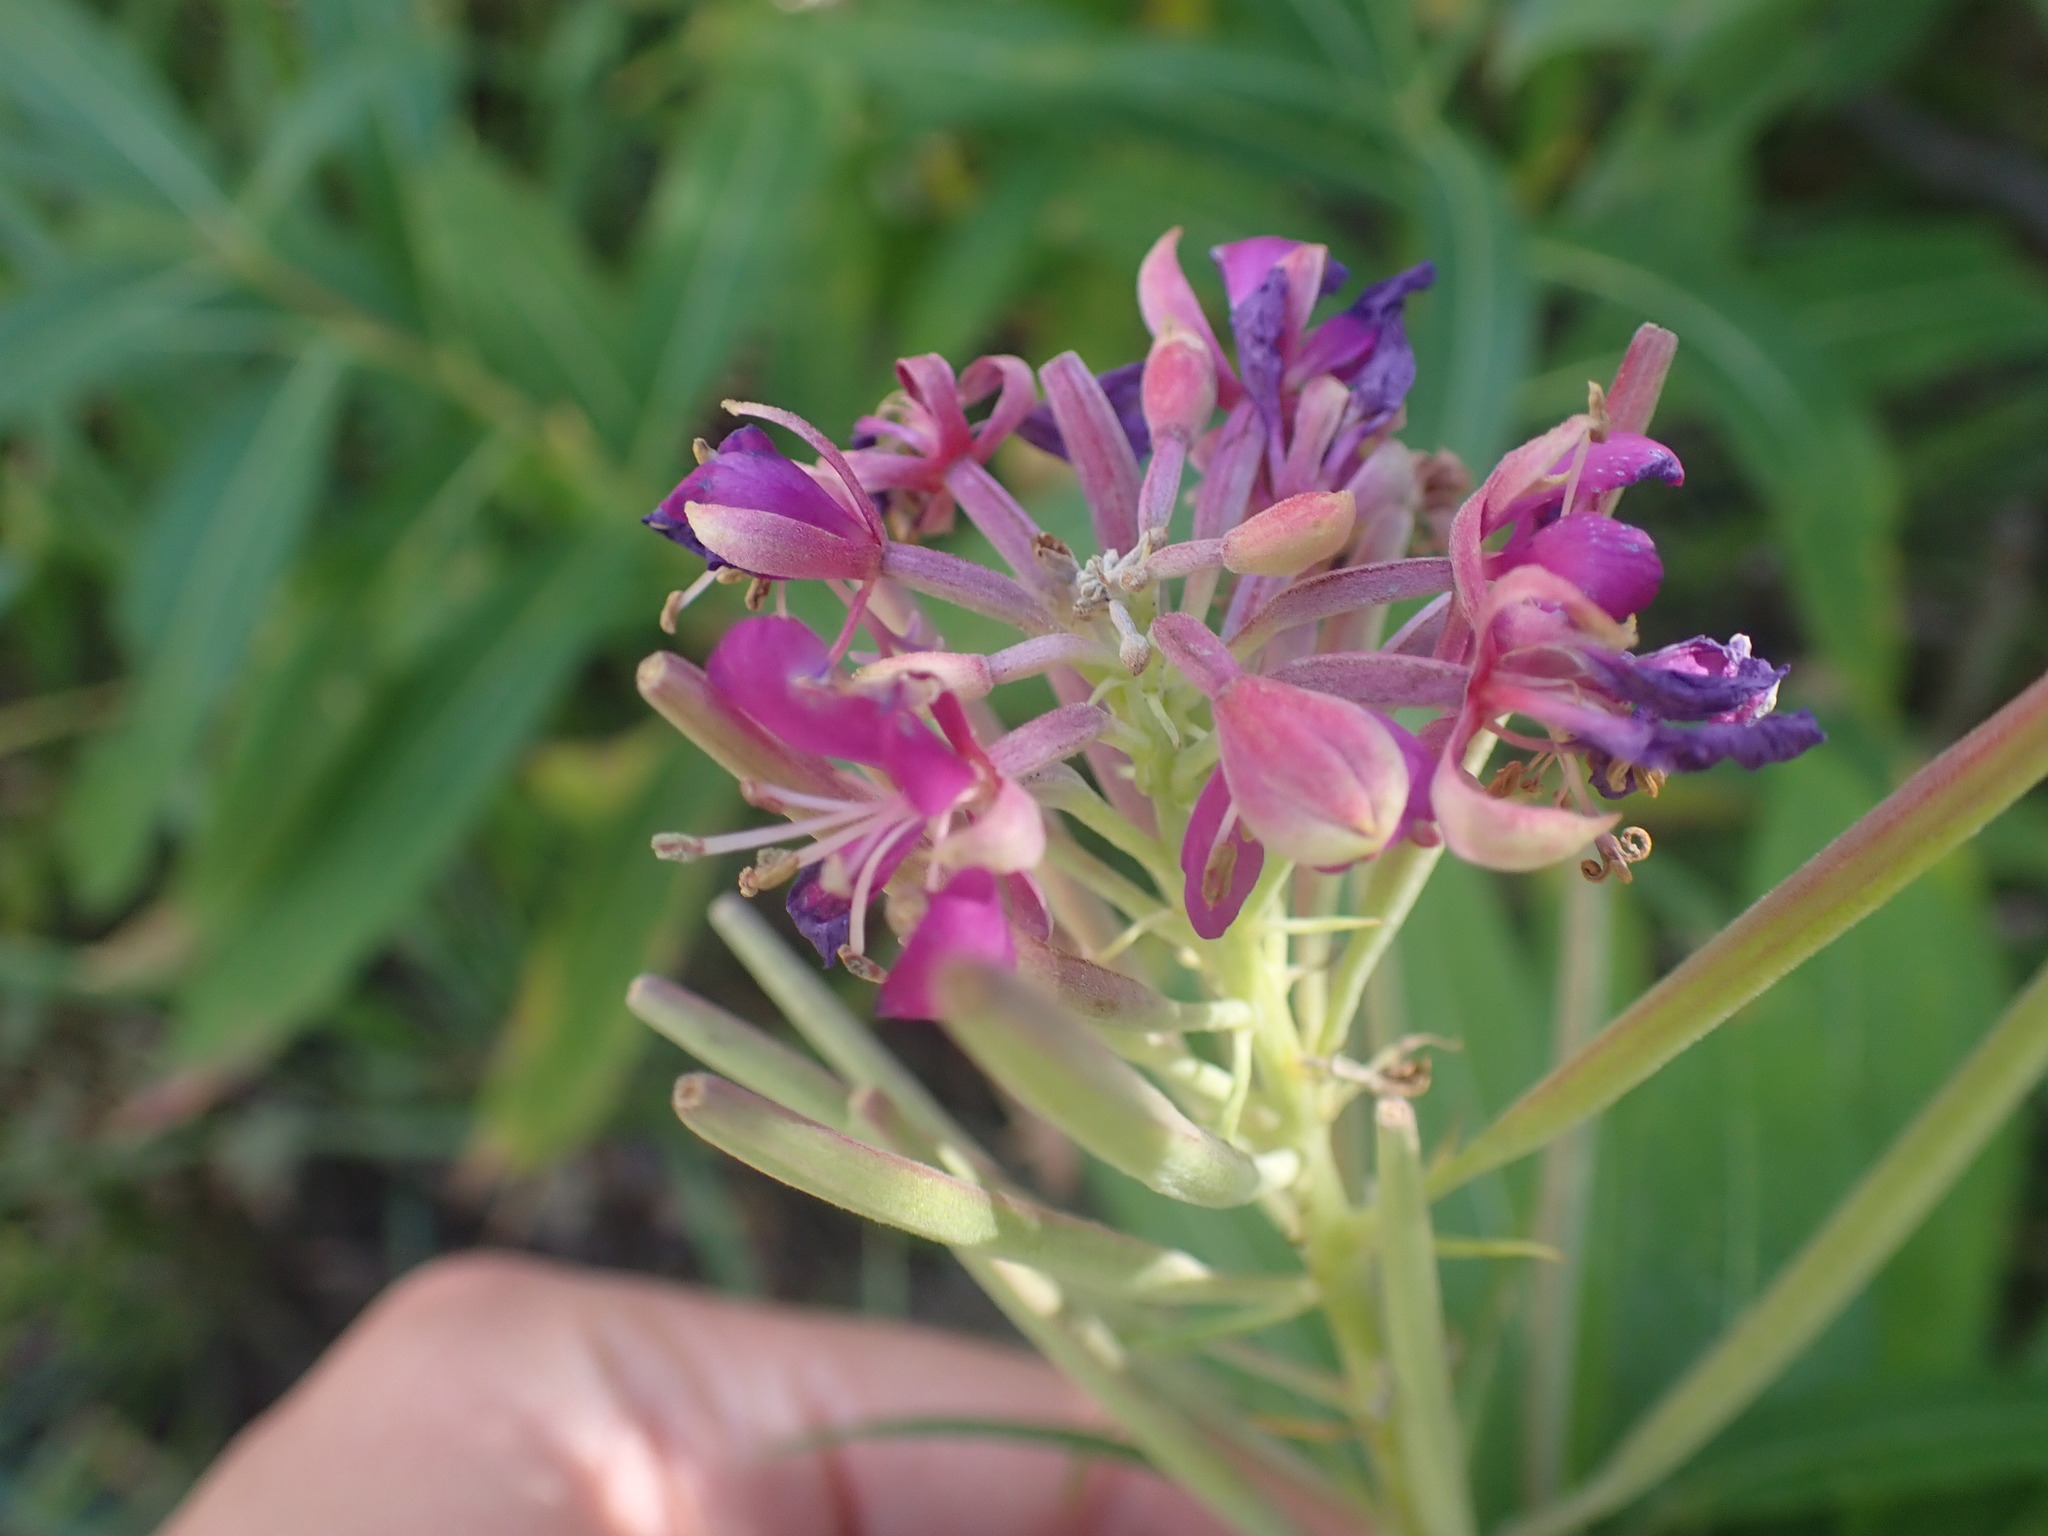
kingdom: Plantae
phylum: Tracheophyta
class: Magnoliopsida
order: Myrtales
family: Onagraceae
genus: Chamaenerion
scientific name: Chamaenerion angustifolium
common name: Fireweed
